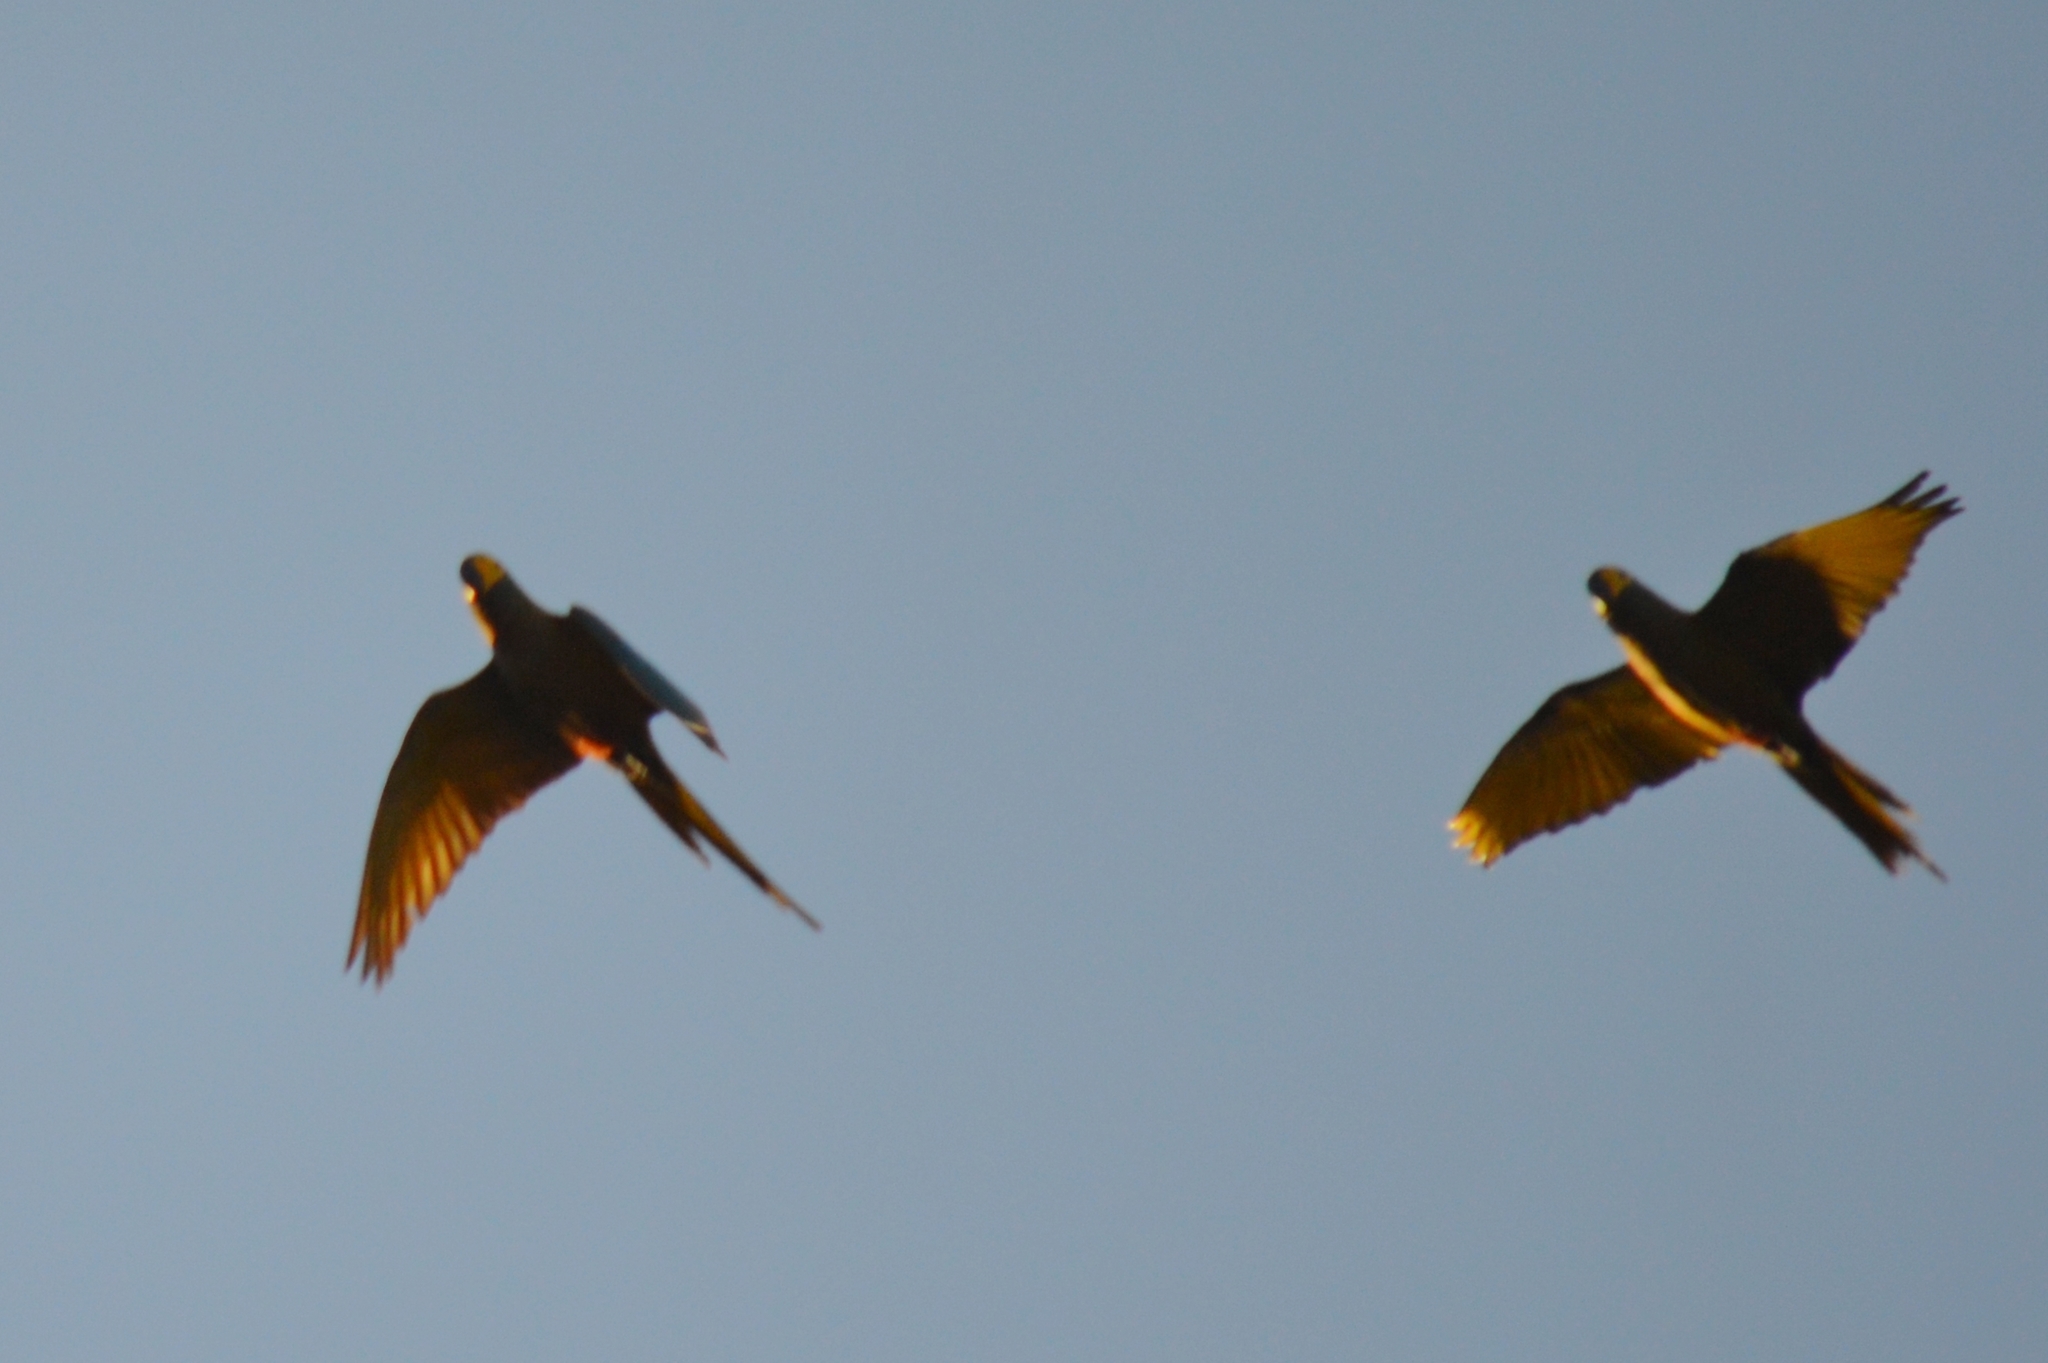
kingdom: Animalia
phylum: Chordata
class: Aves
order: Psittaciformes
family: Psittacidae
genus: Orthopsittaca
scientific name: Orthopsittaca manilata
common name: Red-bellied macaw
